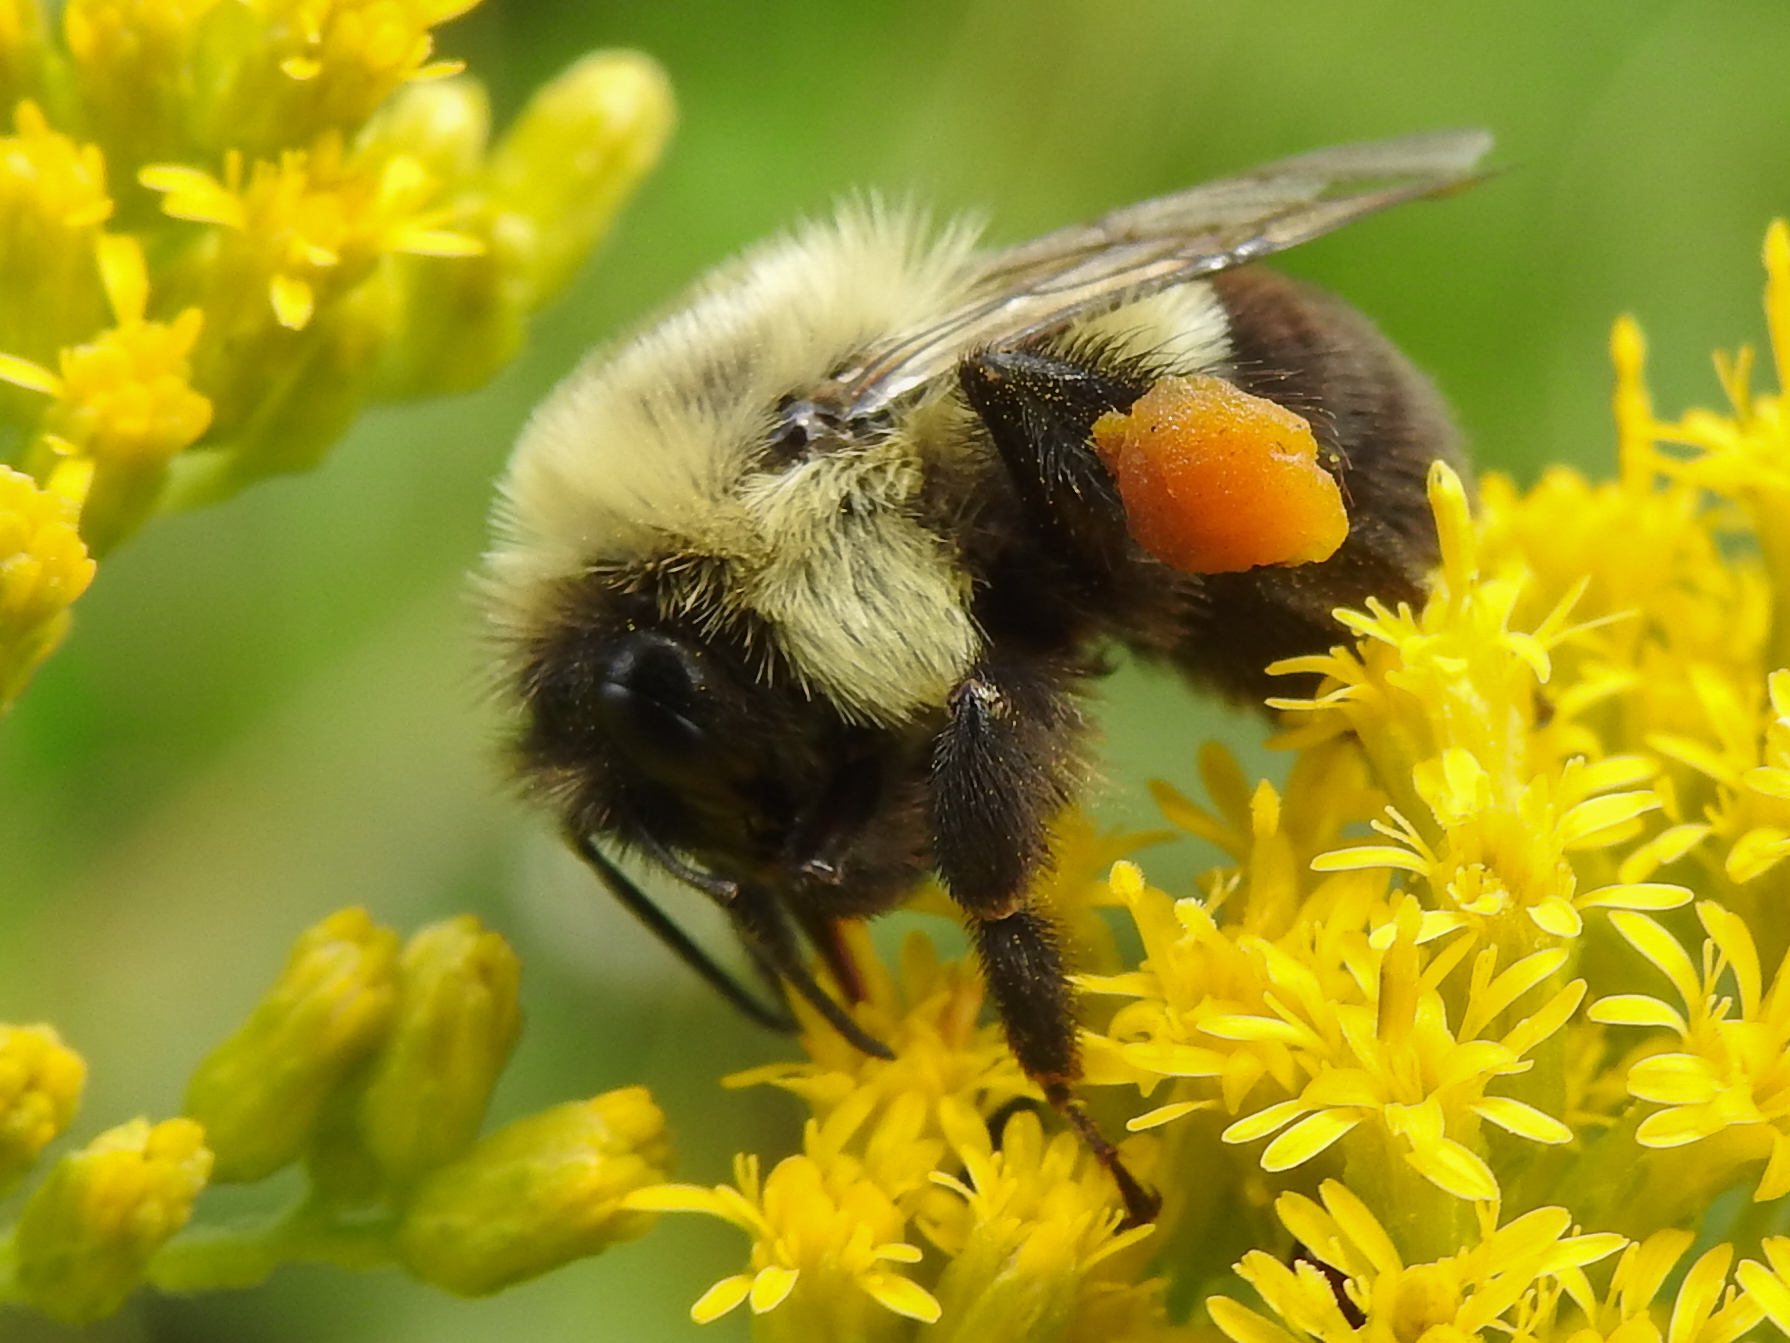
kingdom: Animalia
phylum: Arthropoda
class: Insecta
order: Hymenoptera
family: Apidae
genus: Bombus
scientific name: Bombus impatiens
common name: Common eastern bumble bee
